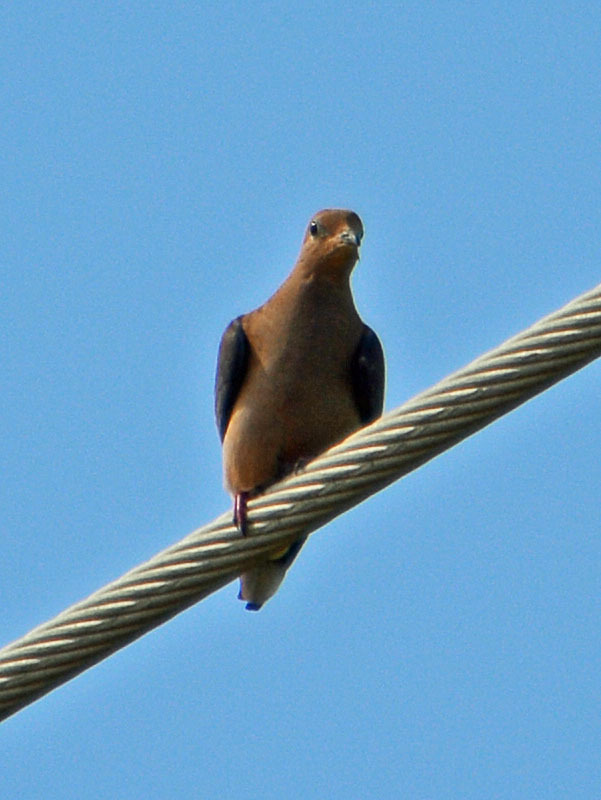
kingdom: Animalia
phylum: Chordata
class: Aves
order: Columbiformes
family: Columbidae
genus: Zenaida
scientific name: Zenaida macroura
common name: Mourning dove
